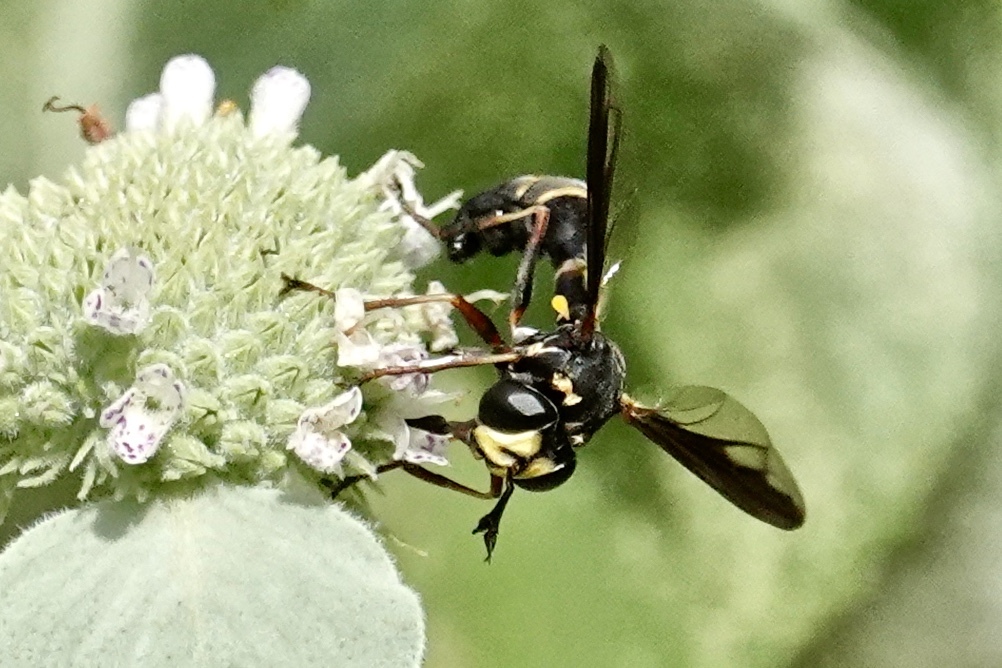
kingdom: Animalia
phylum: Arthropoda
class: Insecta
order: Diptera
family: Conopidae
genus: Physocephala
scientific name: Physocephala marginata
